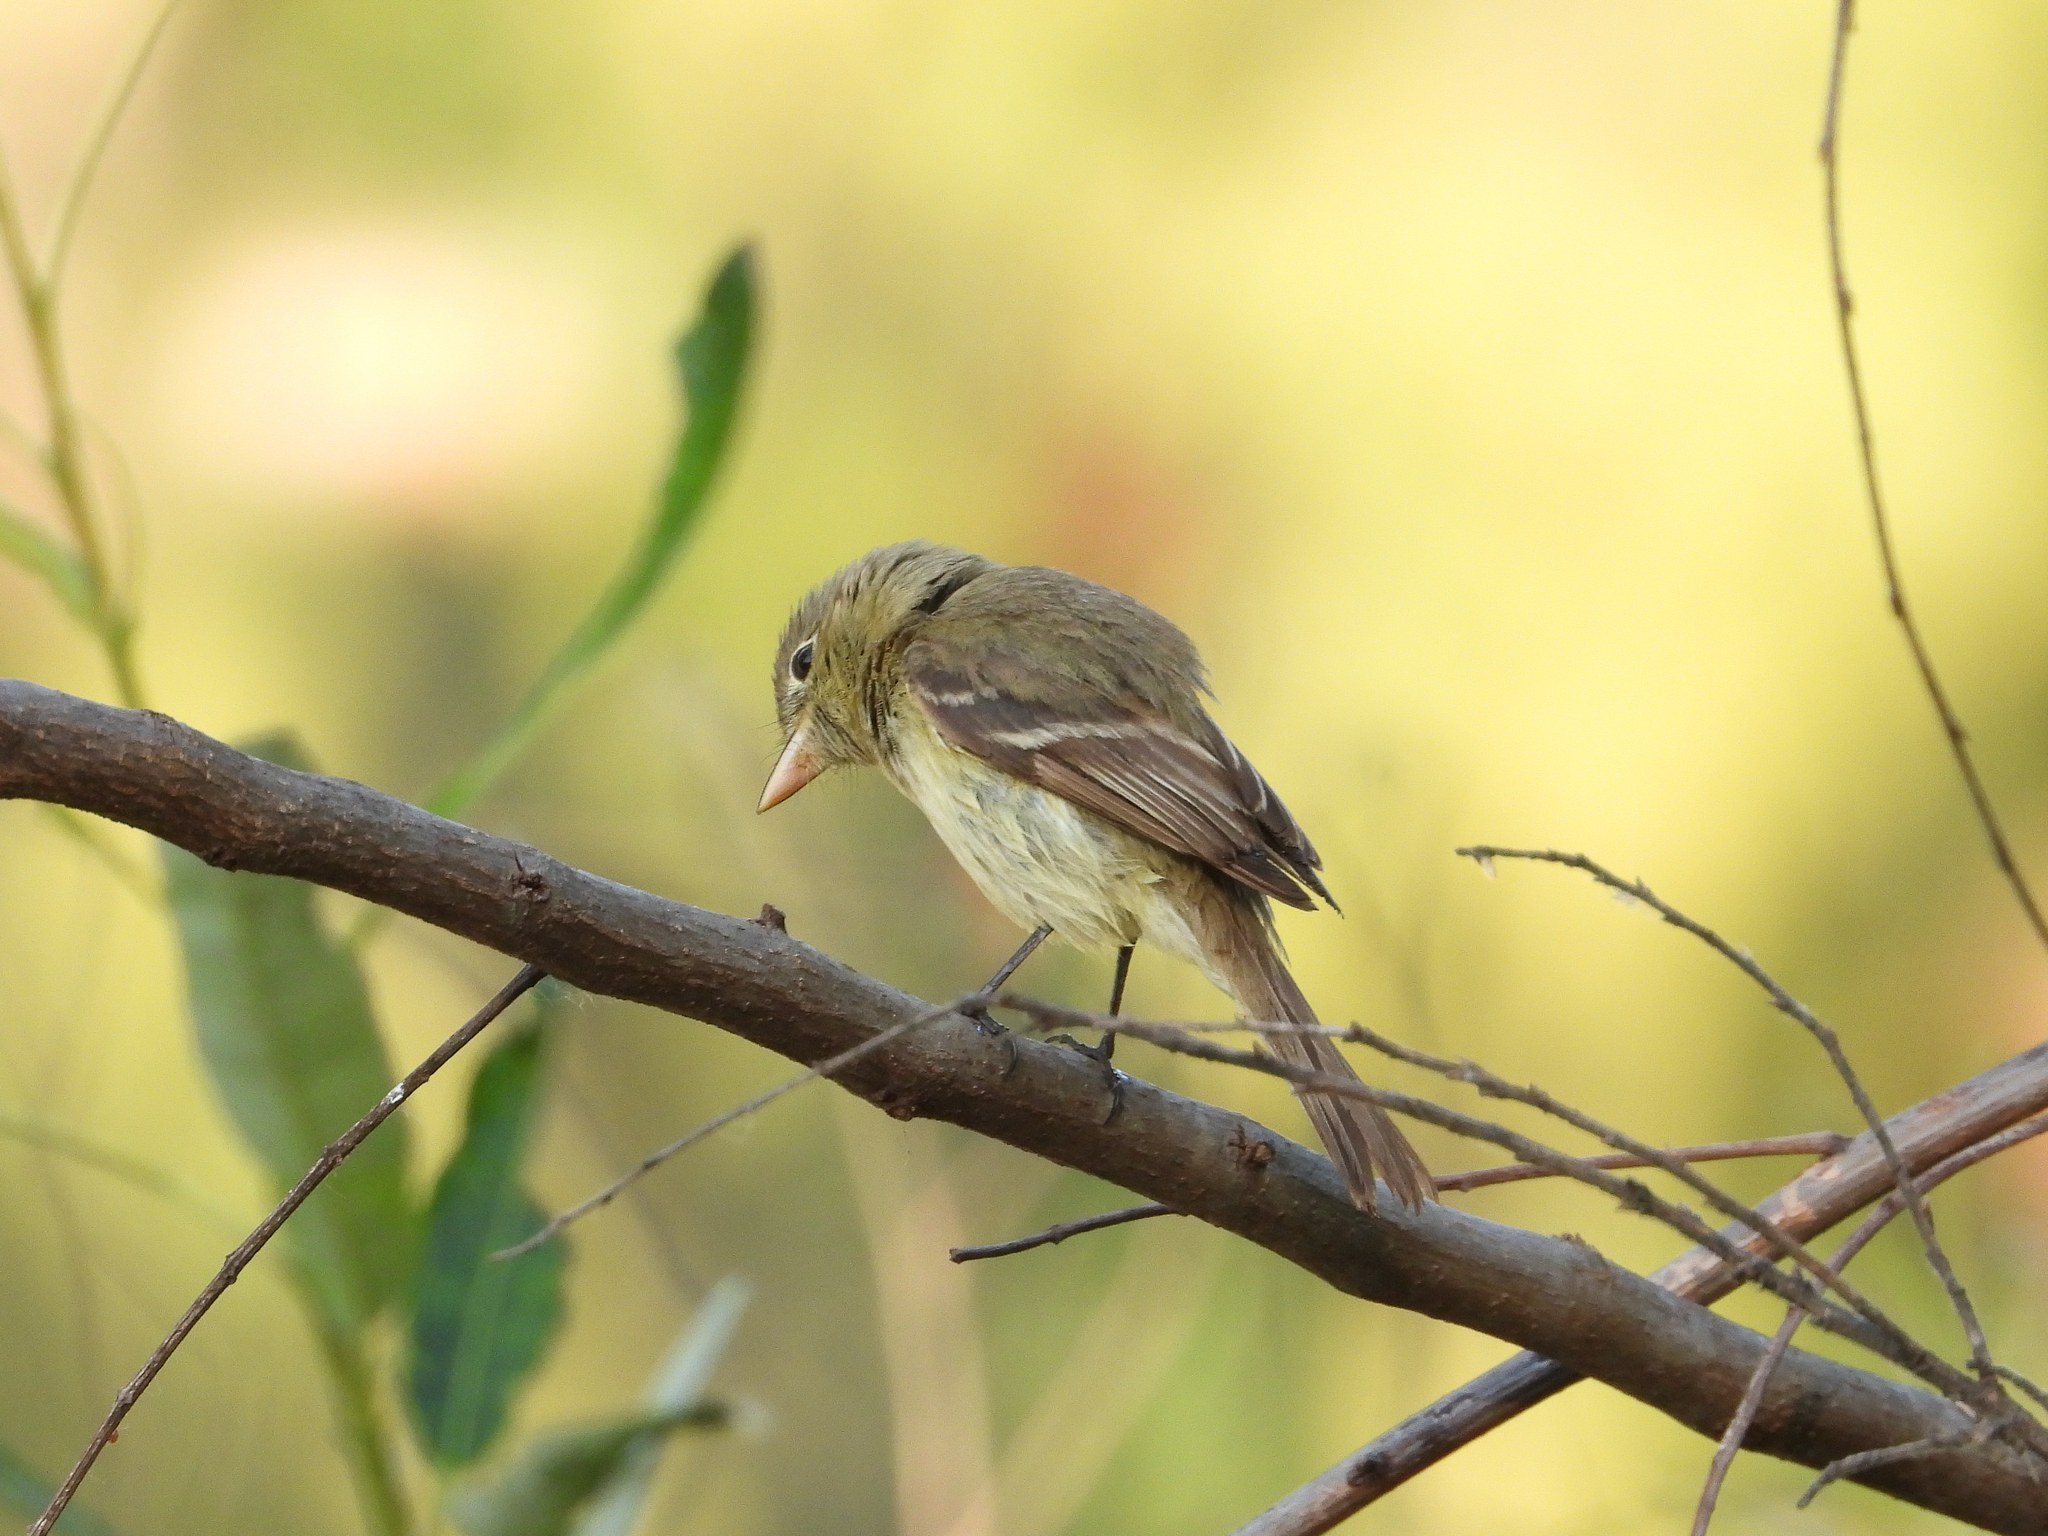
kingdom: Animalia
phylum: Chordata
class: Aves
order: Passeriformes
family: Tyrannidae
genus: Empidonax
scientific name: Empidonax difficilis
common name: Pacific-slope flycatcher
